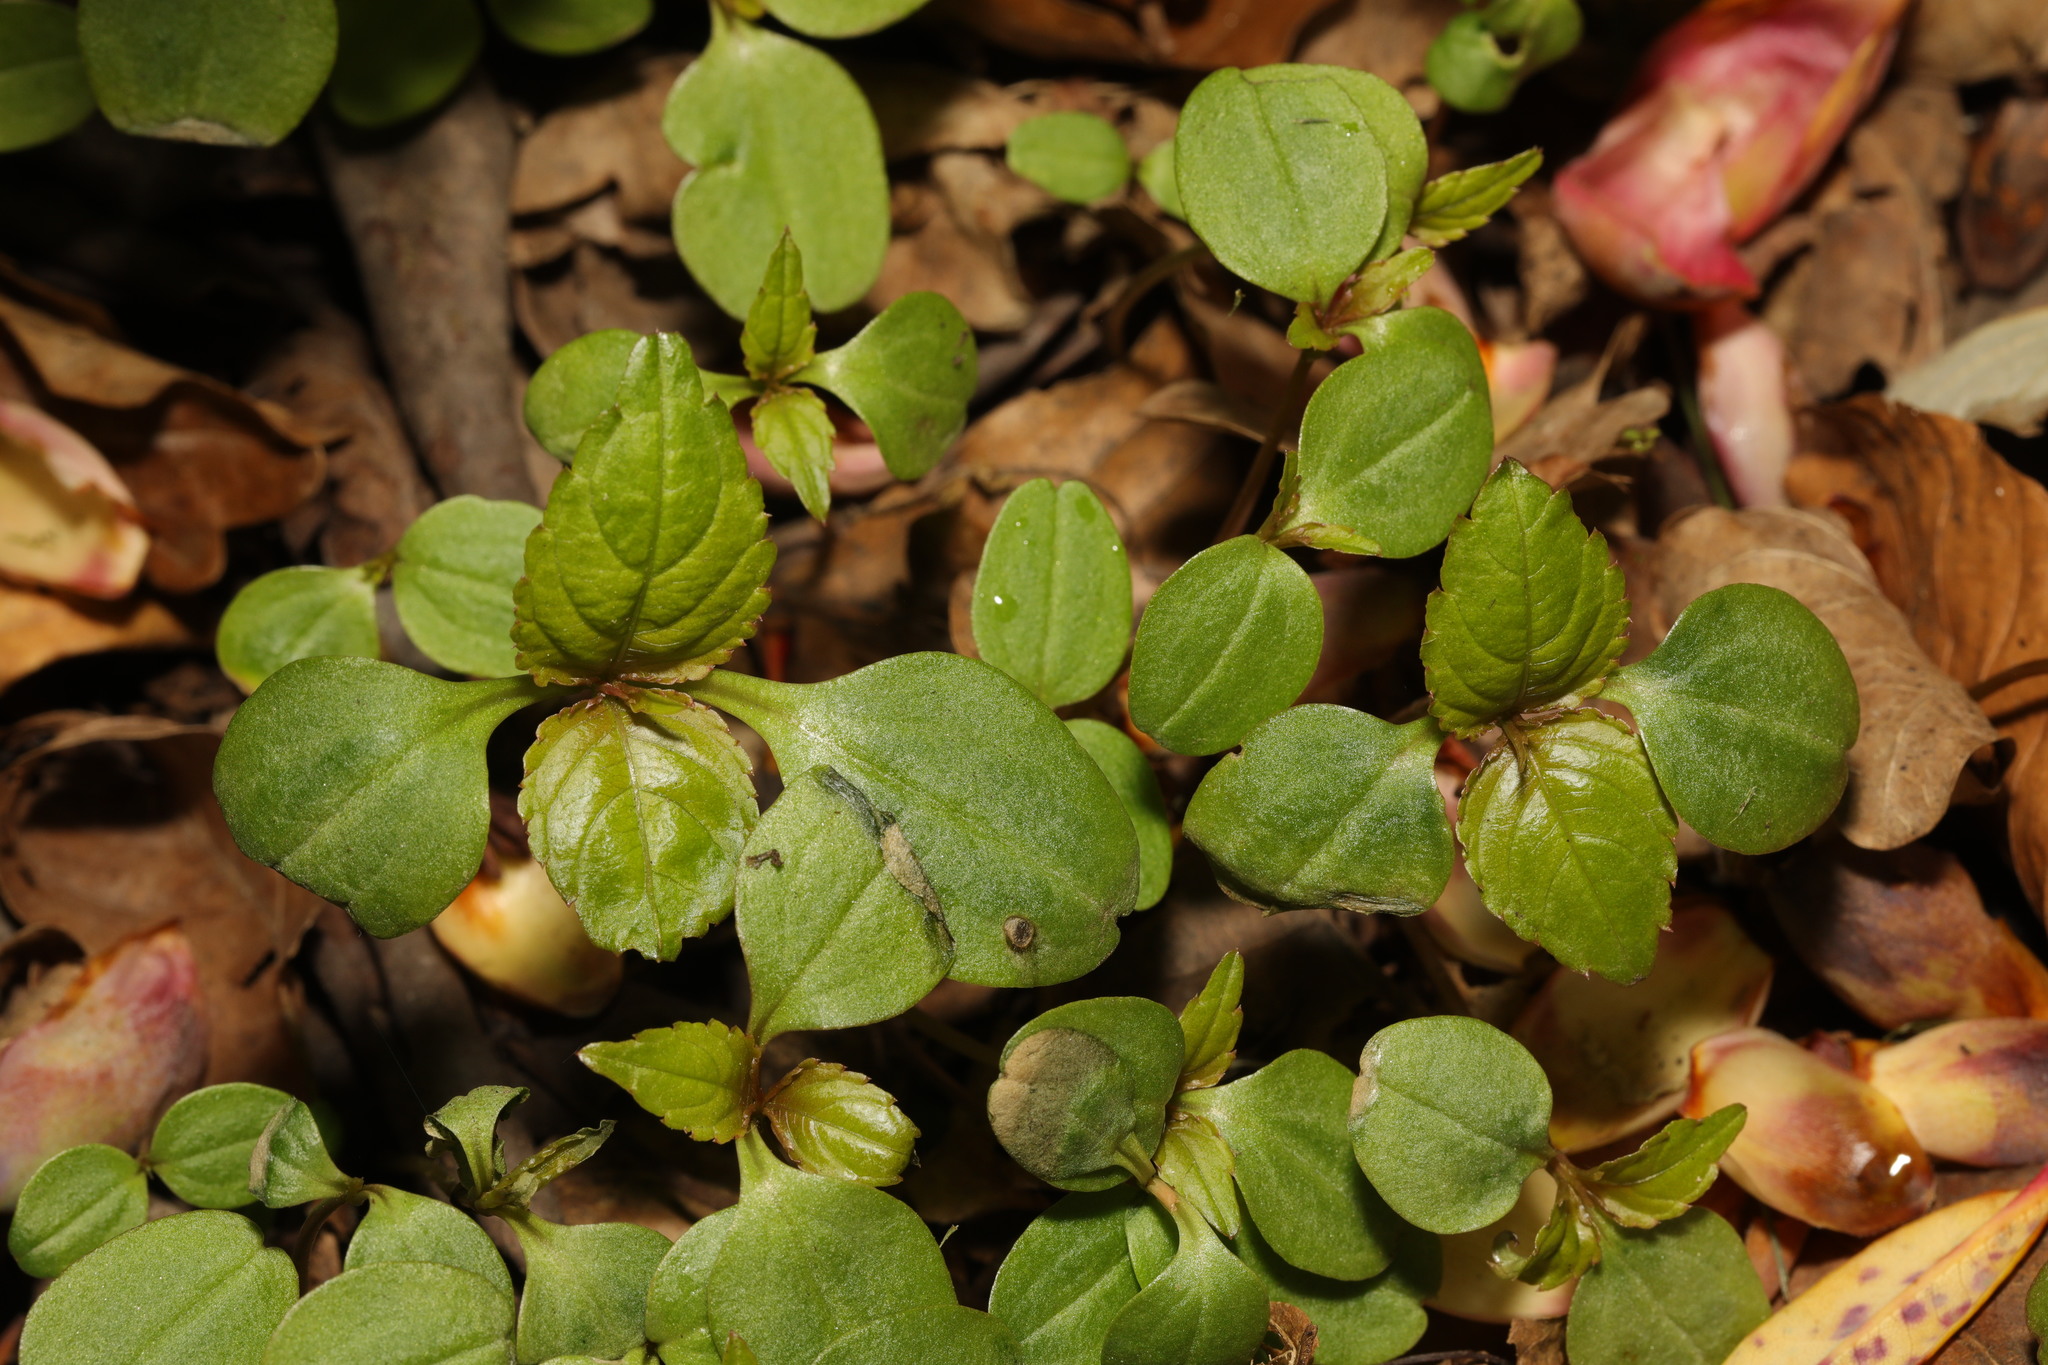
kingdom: Plantae
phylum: Tracheophyta
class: Magnoliopsida
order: Ericales
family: Balsaminaceae
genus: Impatiens
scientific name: Impatiens glandulifera
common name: Himalayan balsam
